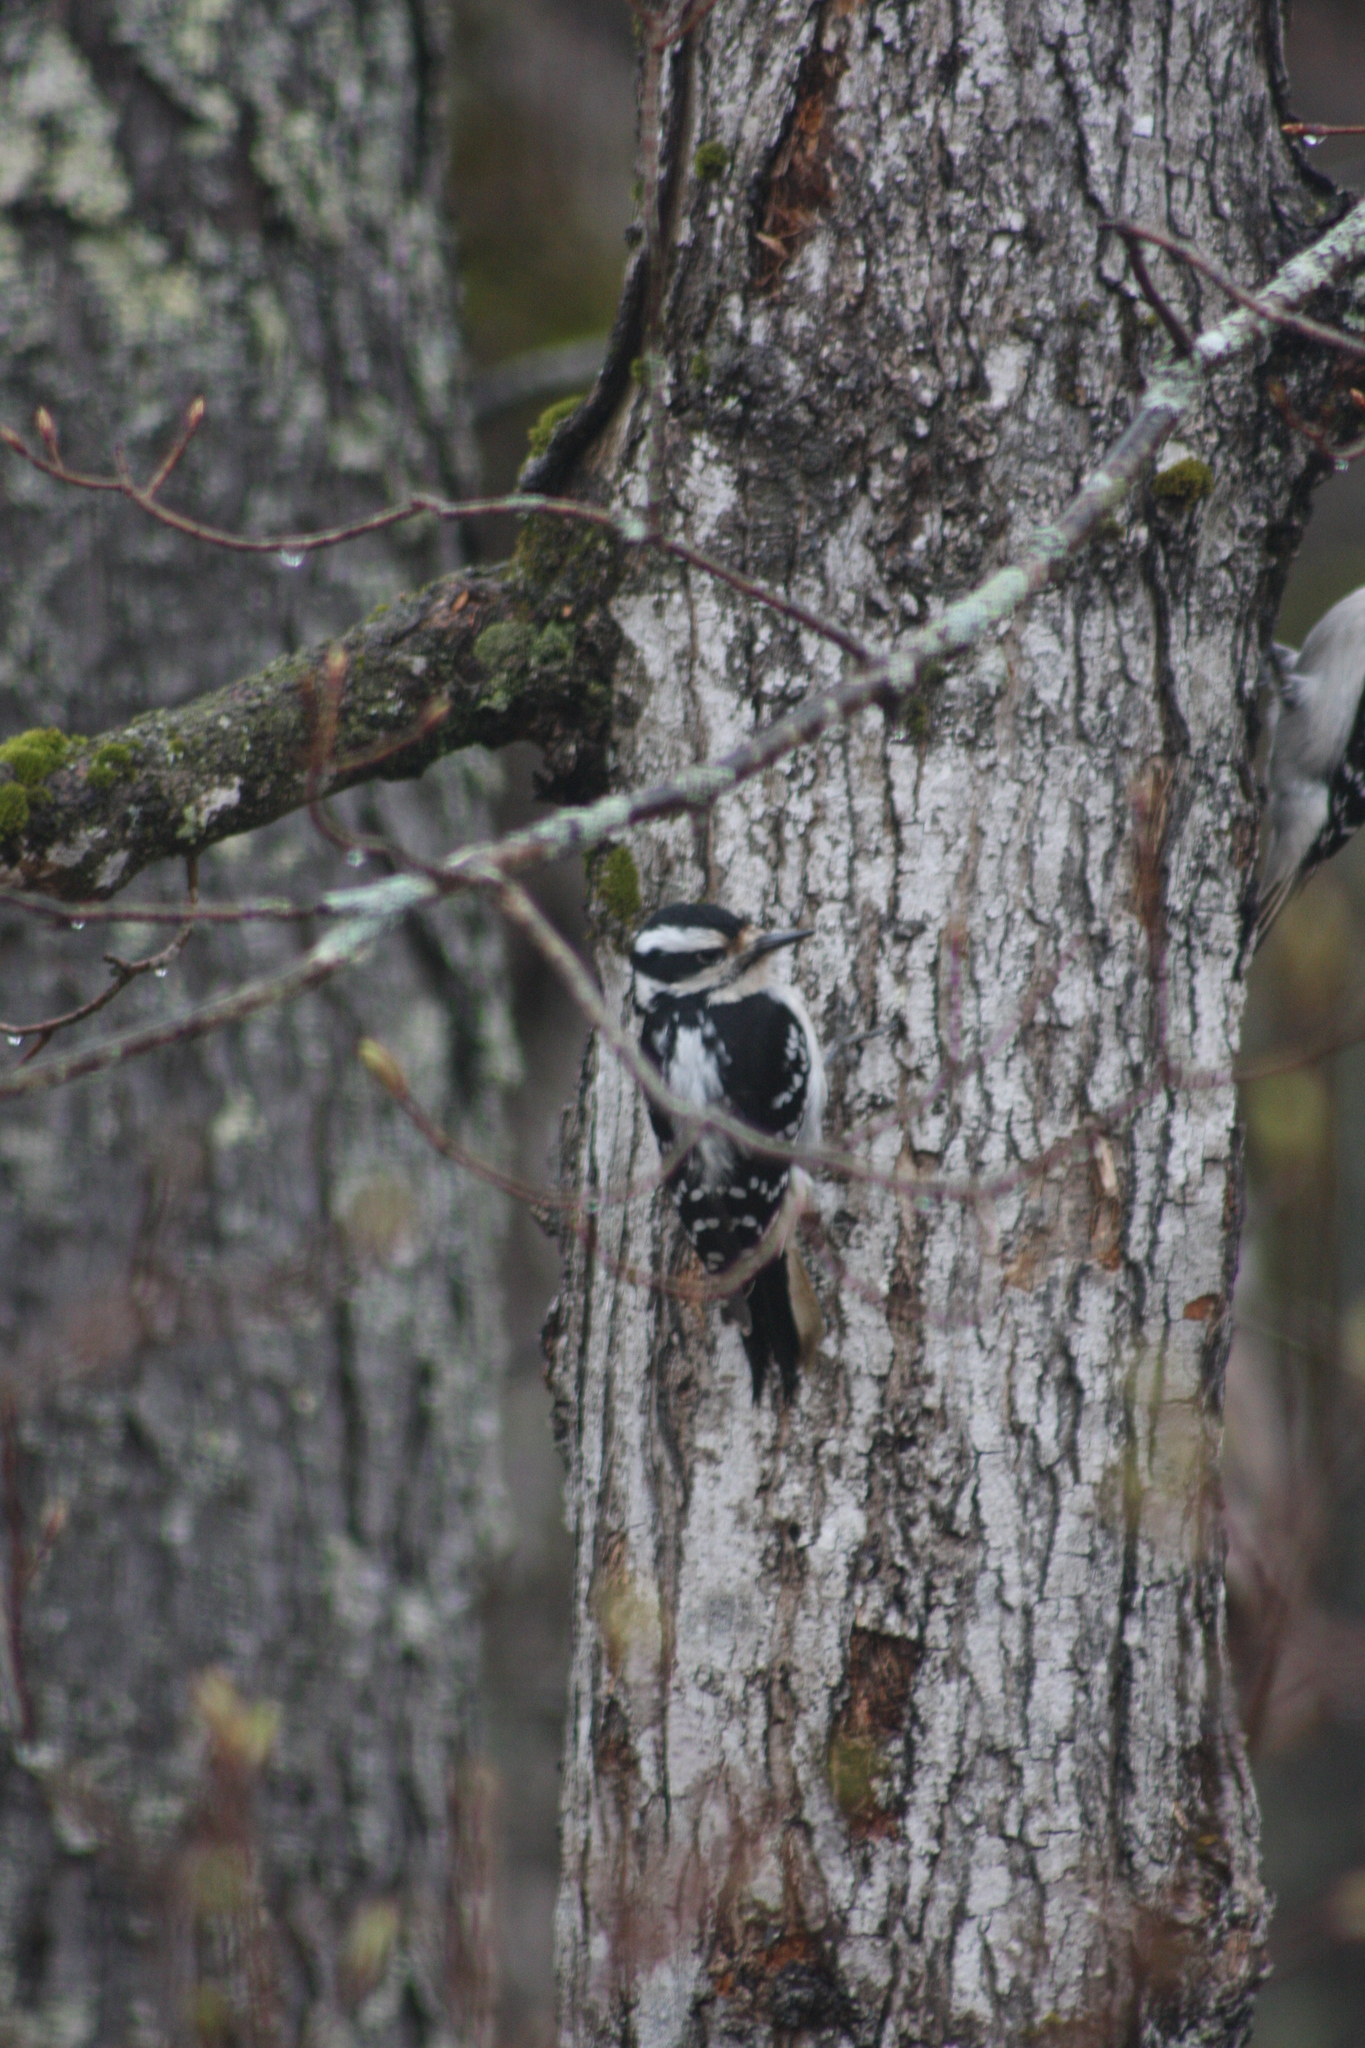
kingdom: Animalia
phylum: Chordata
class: Aves
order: Piciformes
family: Picidae
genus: Leuconotopicus
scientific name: Leuconotopicus villosus
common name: Hairy woodpecker
